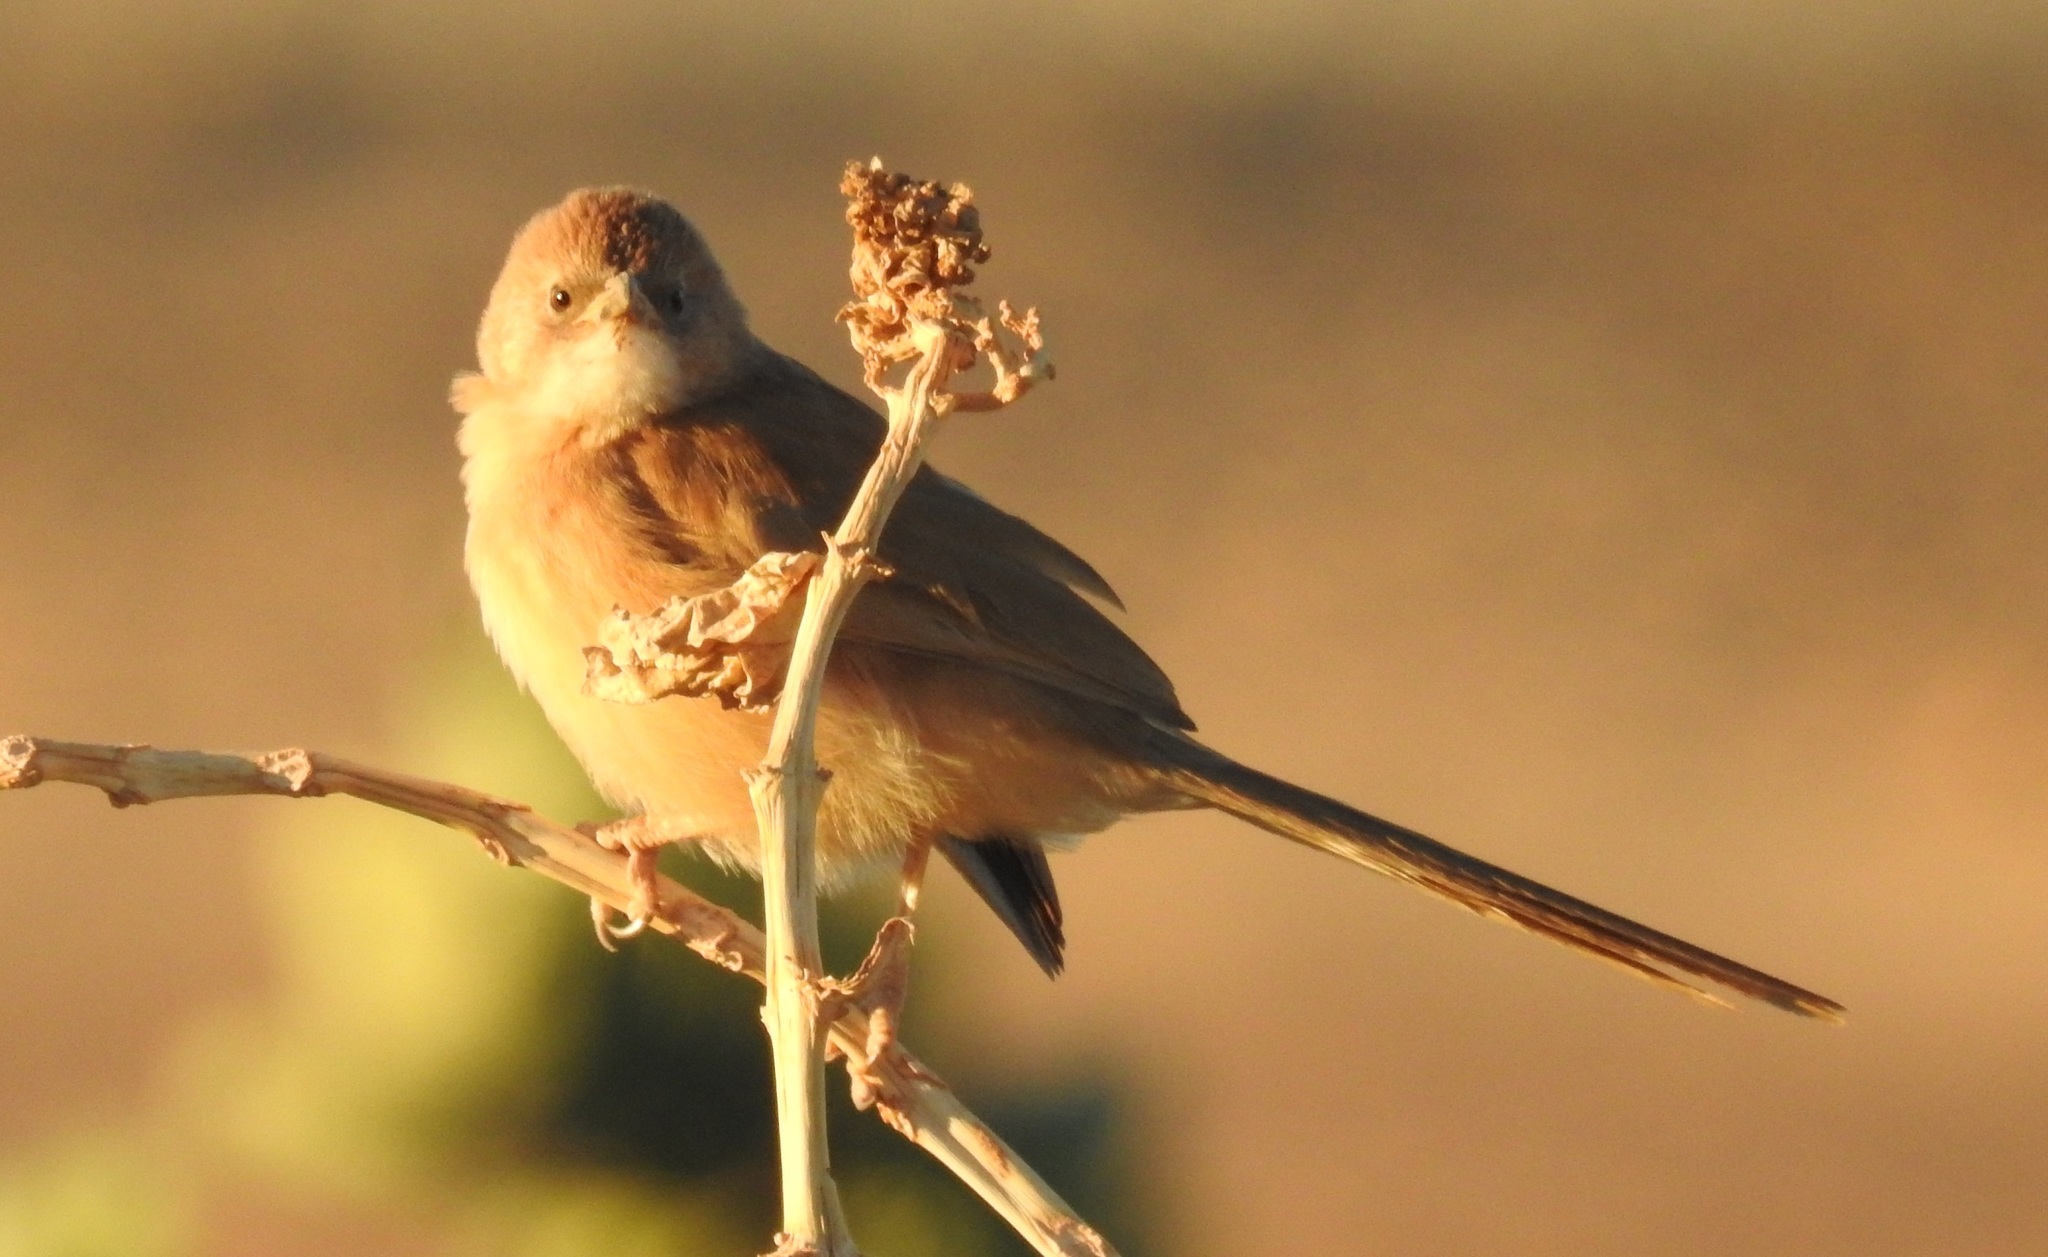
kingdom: Animalia
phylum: Chordata
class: Aves
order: Passeriformes
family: Leiothrichidae
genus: Turdoides
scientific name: Turdoides fulva
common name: Fulvous babbler
